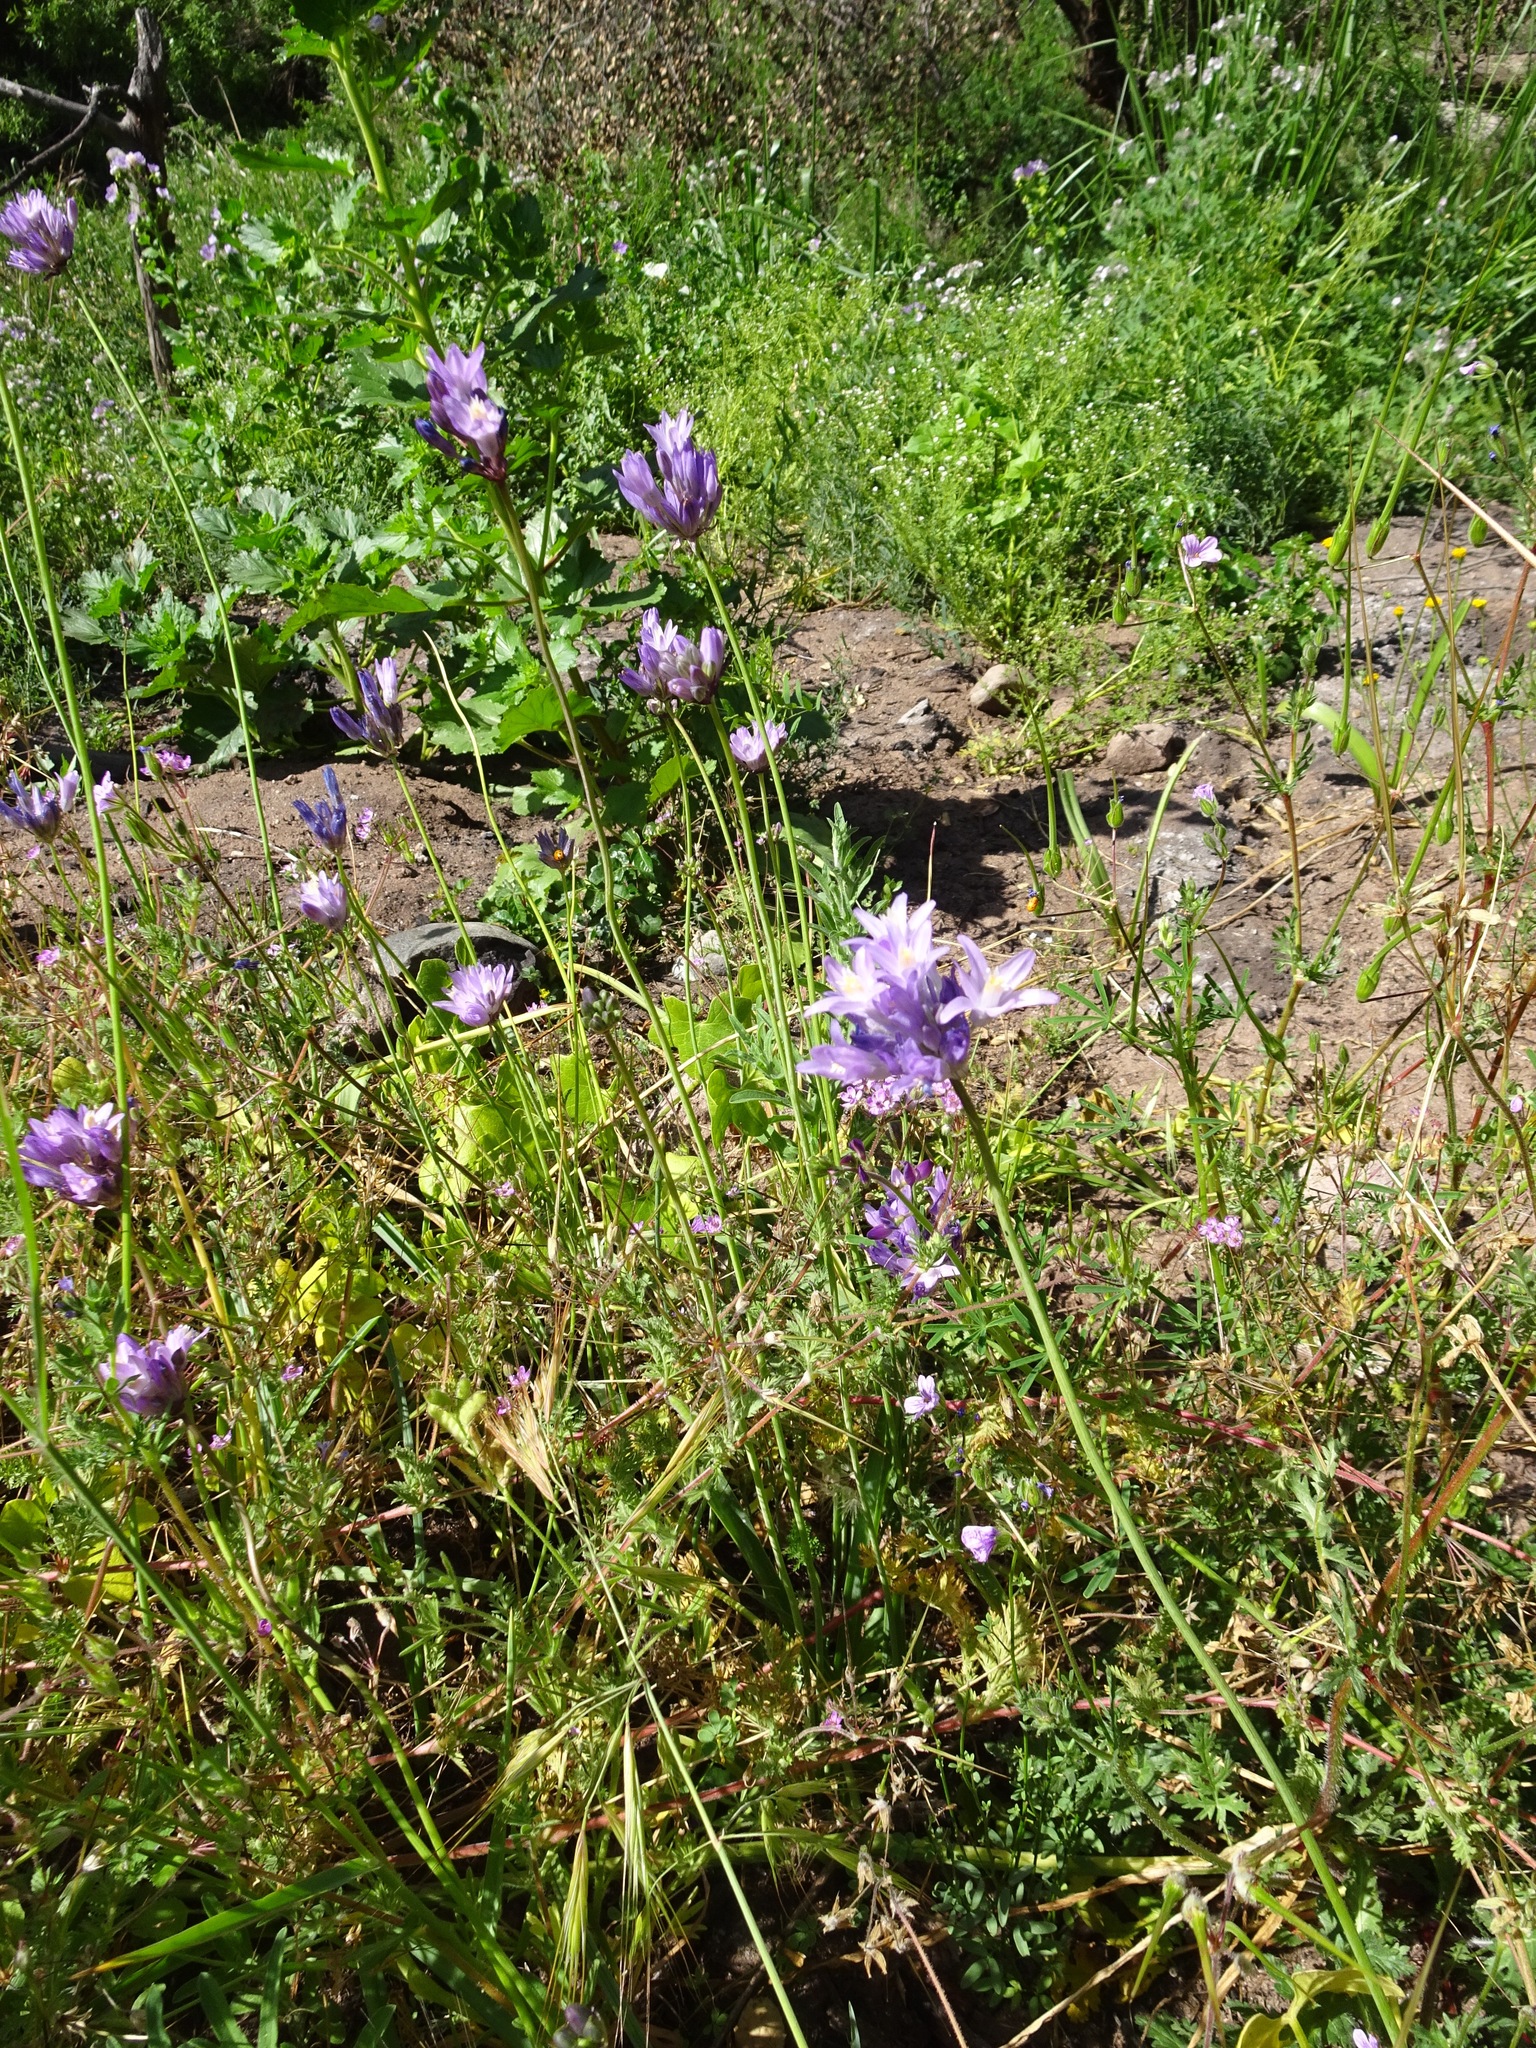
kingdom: Plantae
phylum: Tracheophyta
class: Liliopsida
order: Asparagales
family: Asparagaceae
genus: Dipterostemon
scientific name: Dipterostemon capitatus
